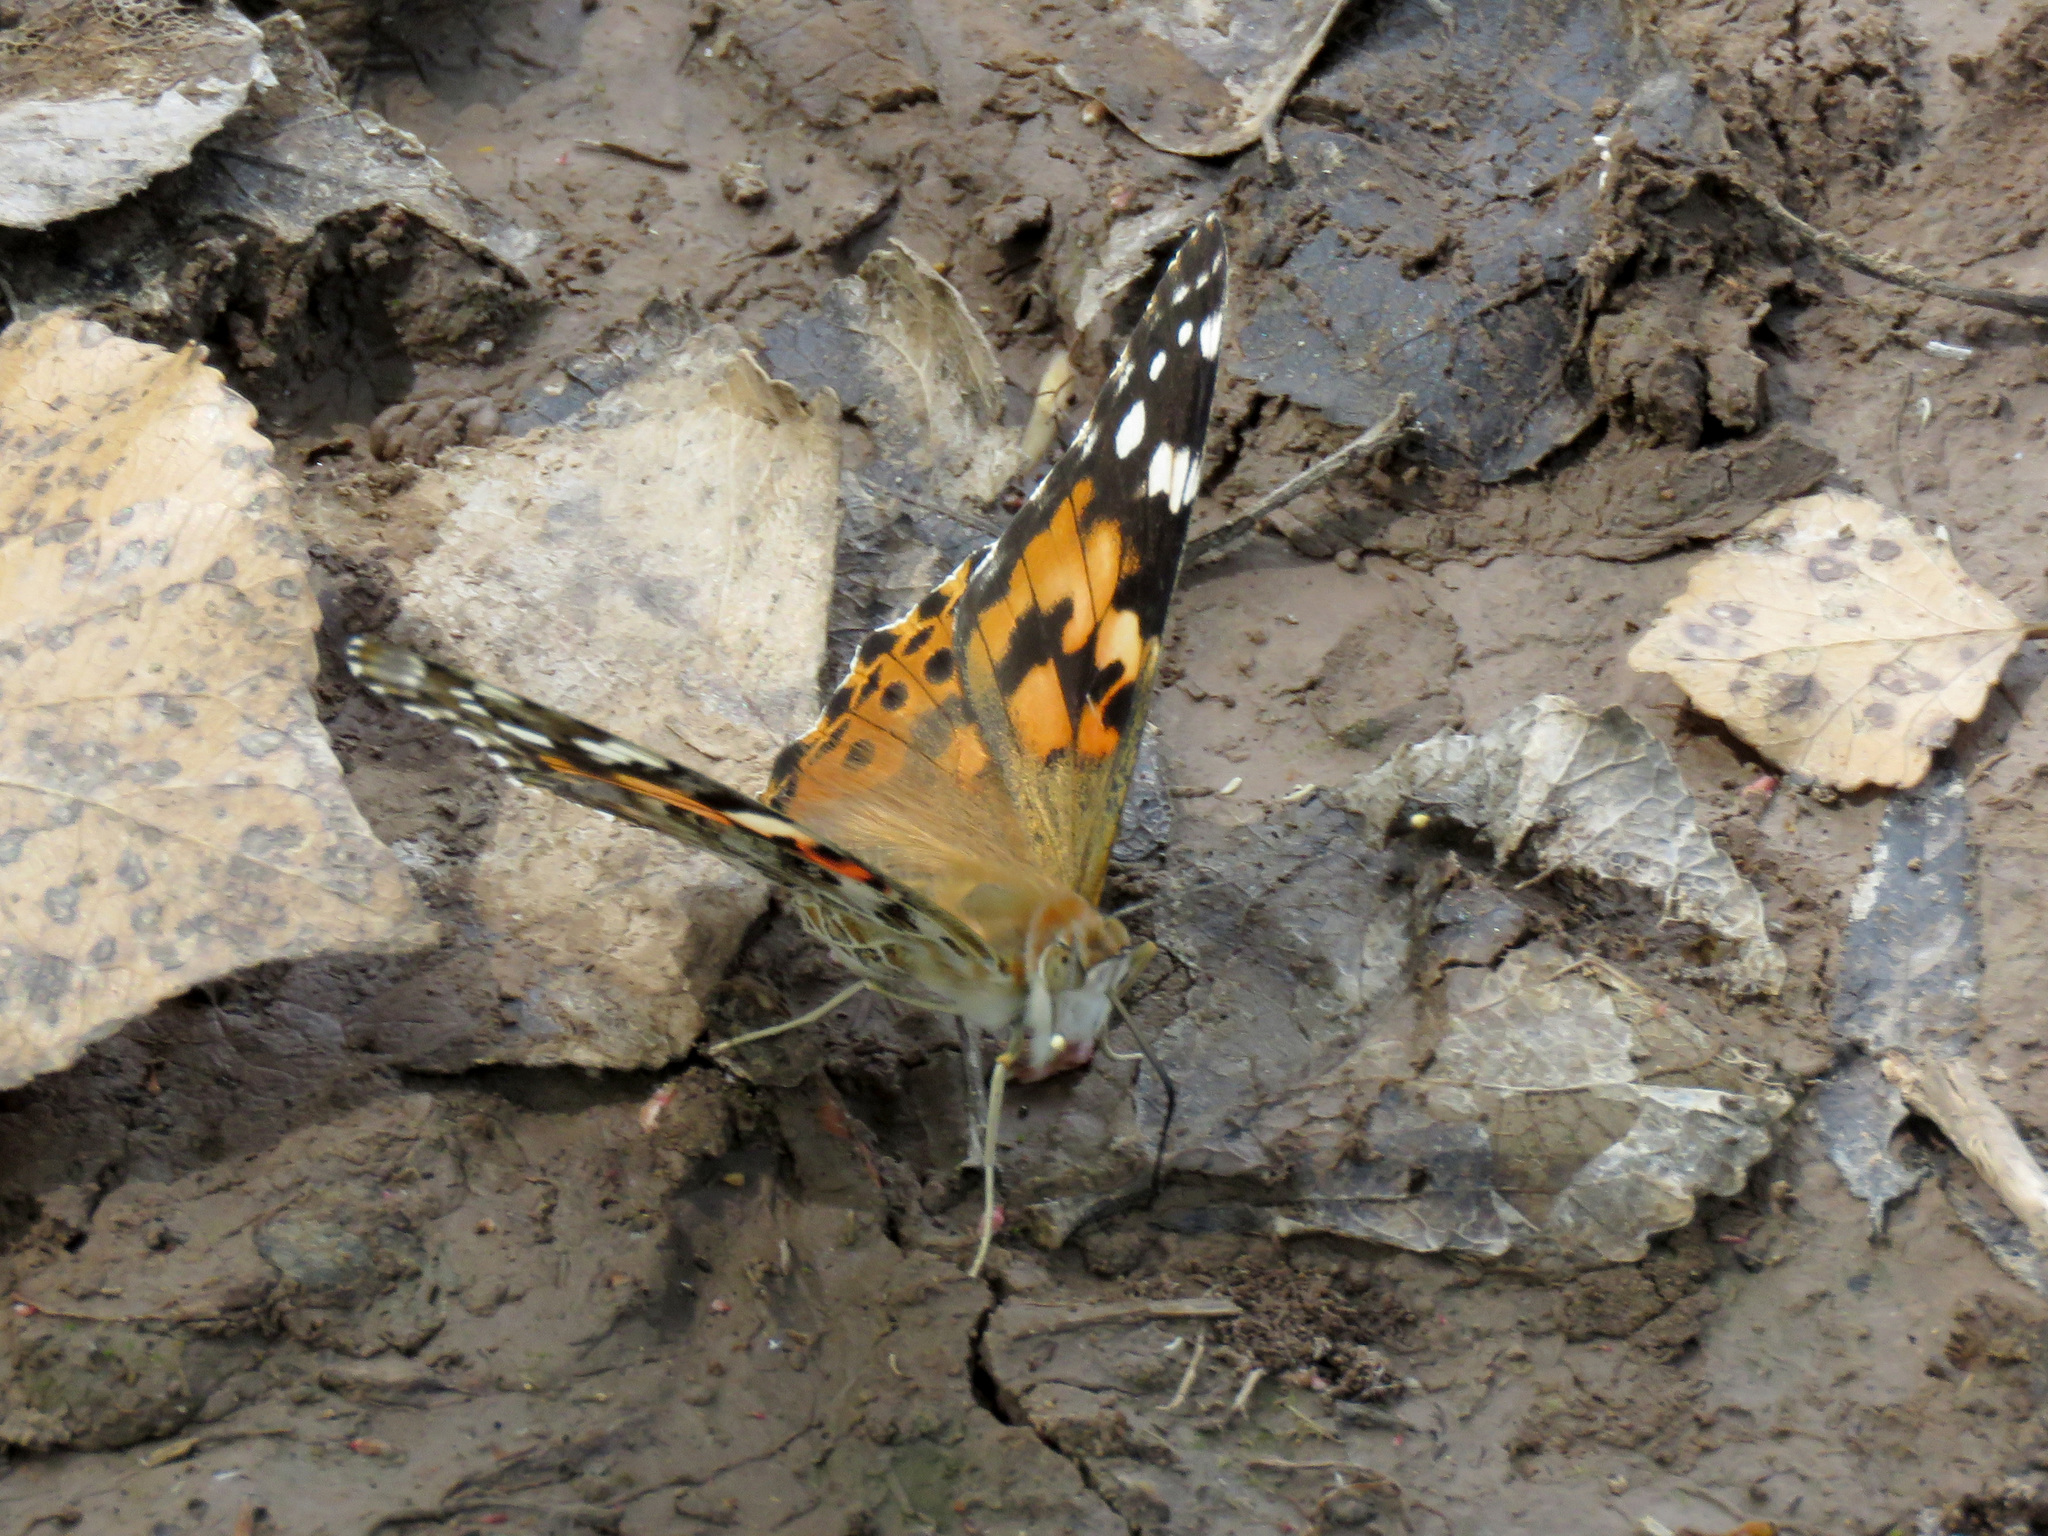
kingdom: Animalia
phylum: Arthropoda
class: Insecta
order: Lepidoptera
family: Nymphalidae
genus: Vanessa
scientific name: Vanessa cardui
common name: Painted lady
